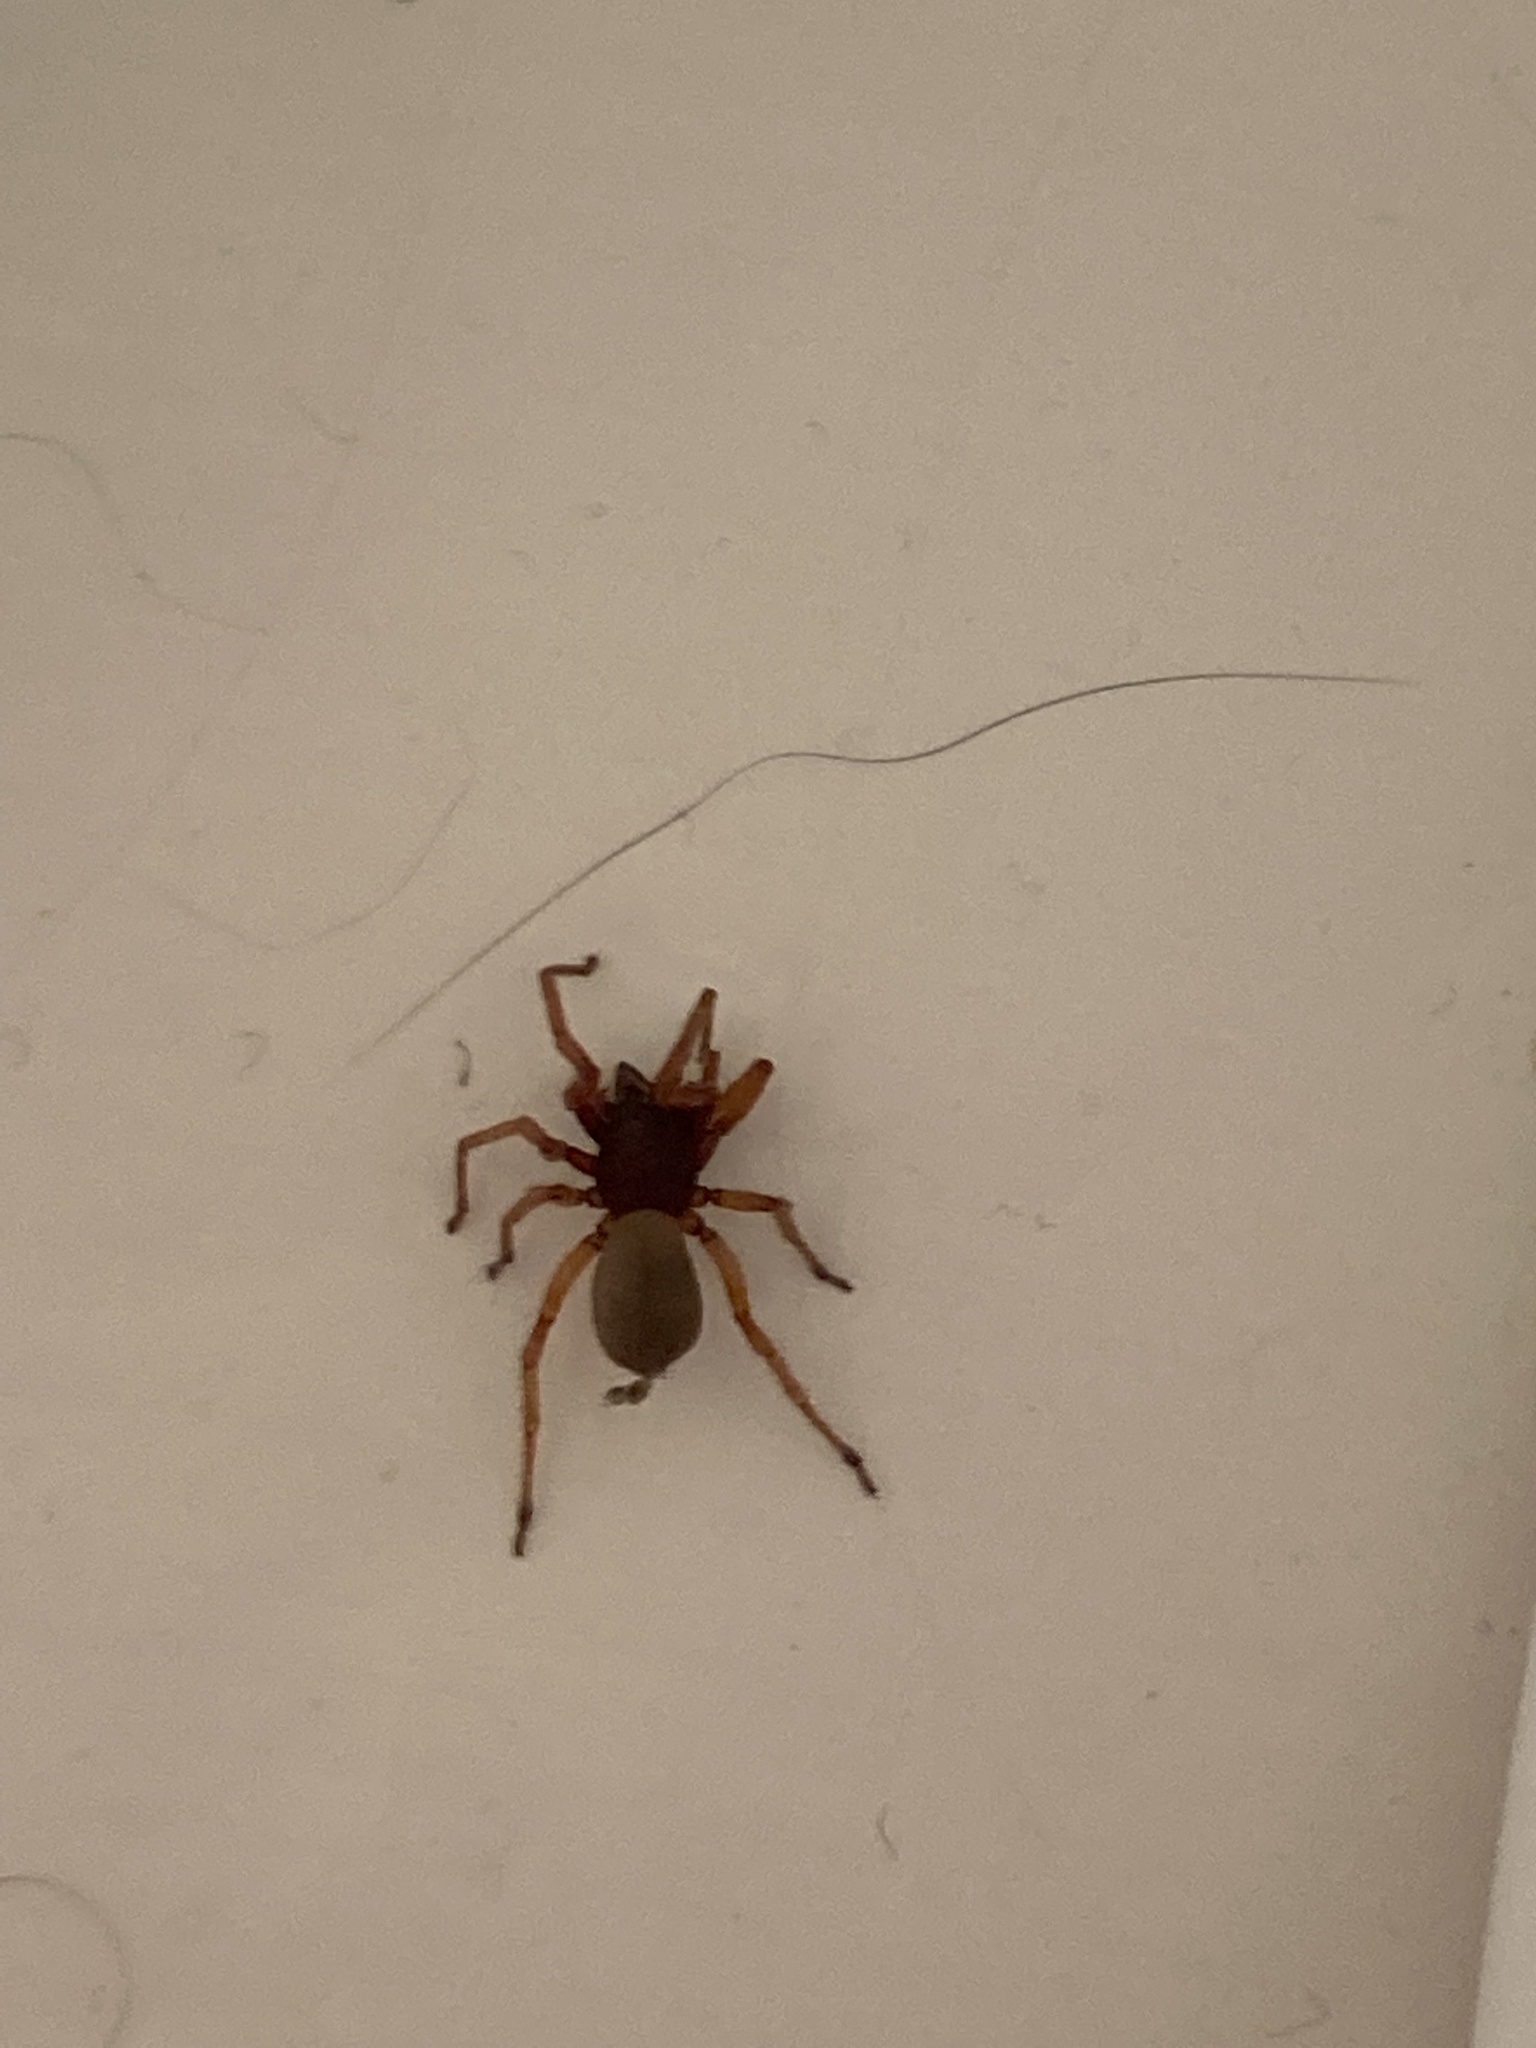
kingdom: Animalia
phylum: Arthropoda
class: Arachnida
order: Araneae
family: Dysderidae
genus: Dysdera
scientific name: Dysdera crocata
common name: Woodlouse spider
